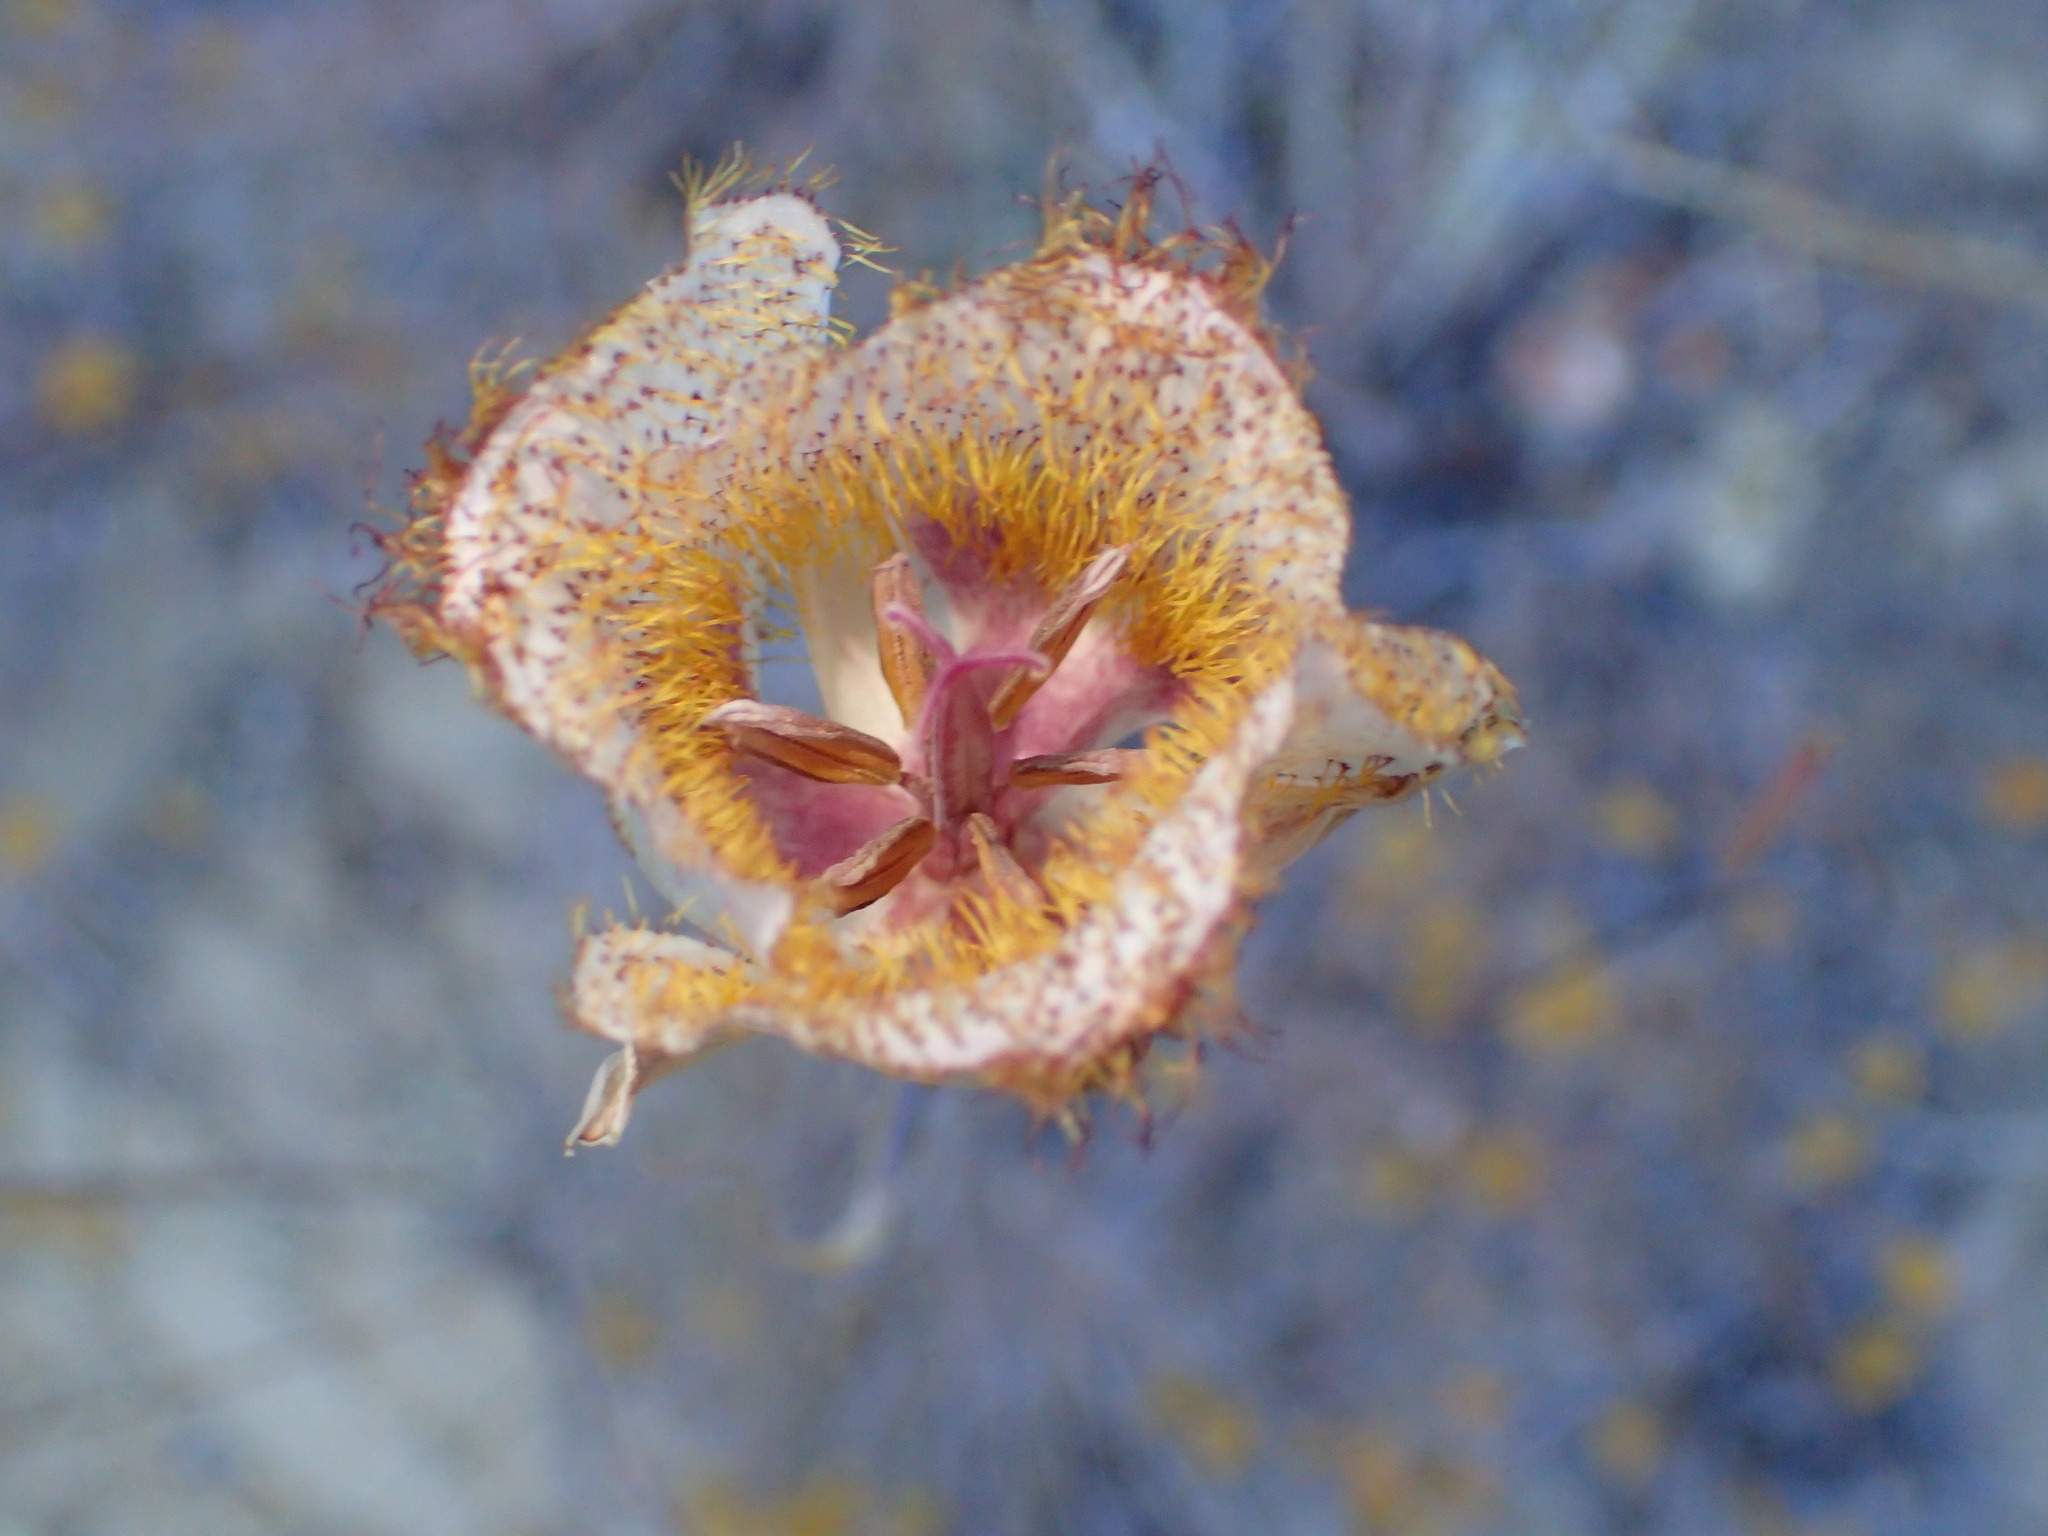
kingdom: Plantae
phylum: Tracheophyta
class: Liliopsida
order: Liliales
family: Liliaceae
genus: Calochortus
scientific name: Calochortus fimbriatus
